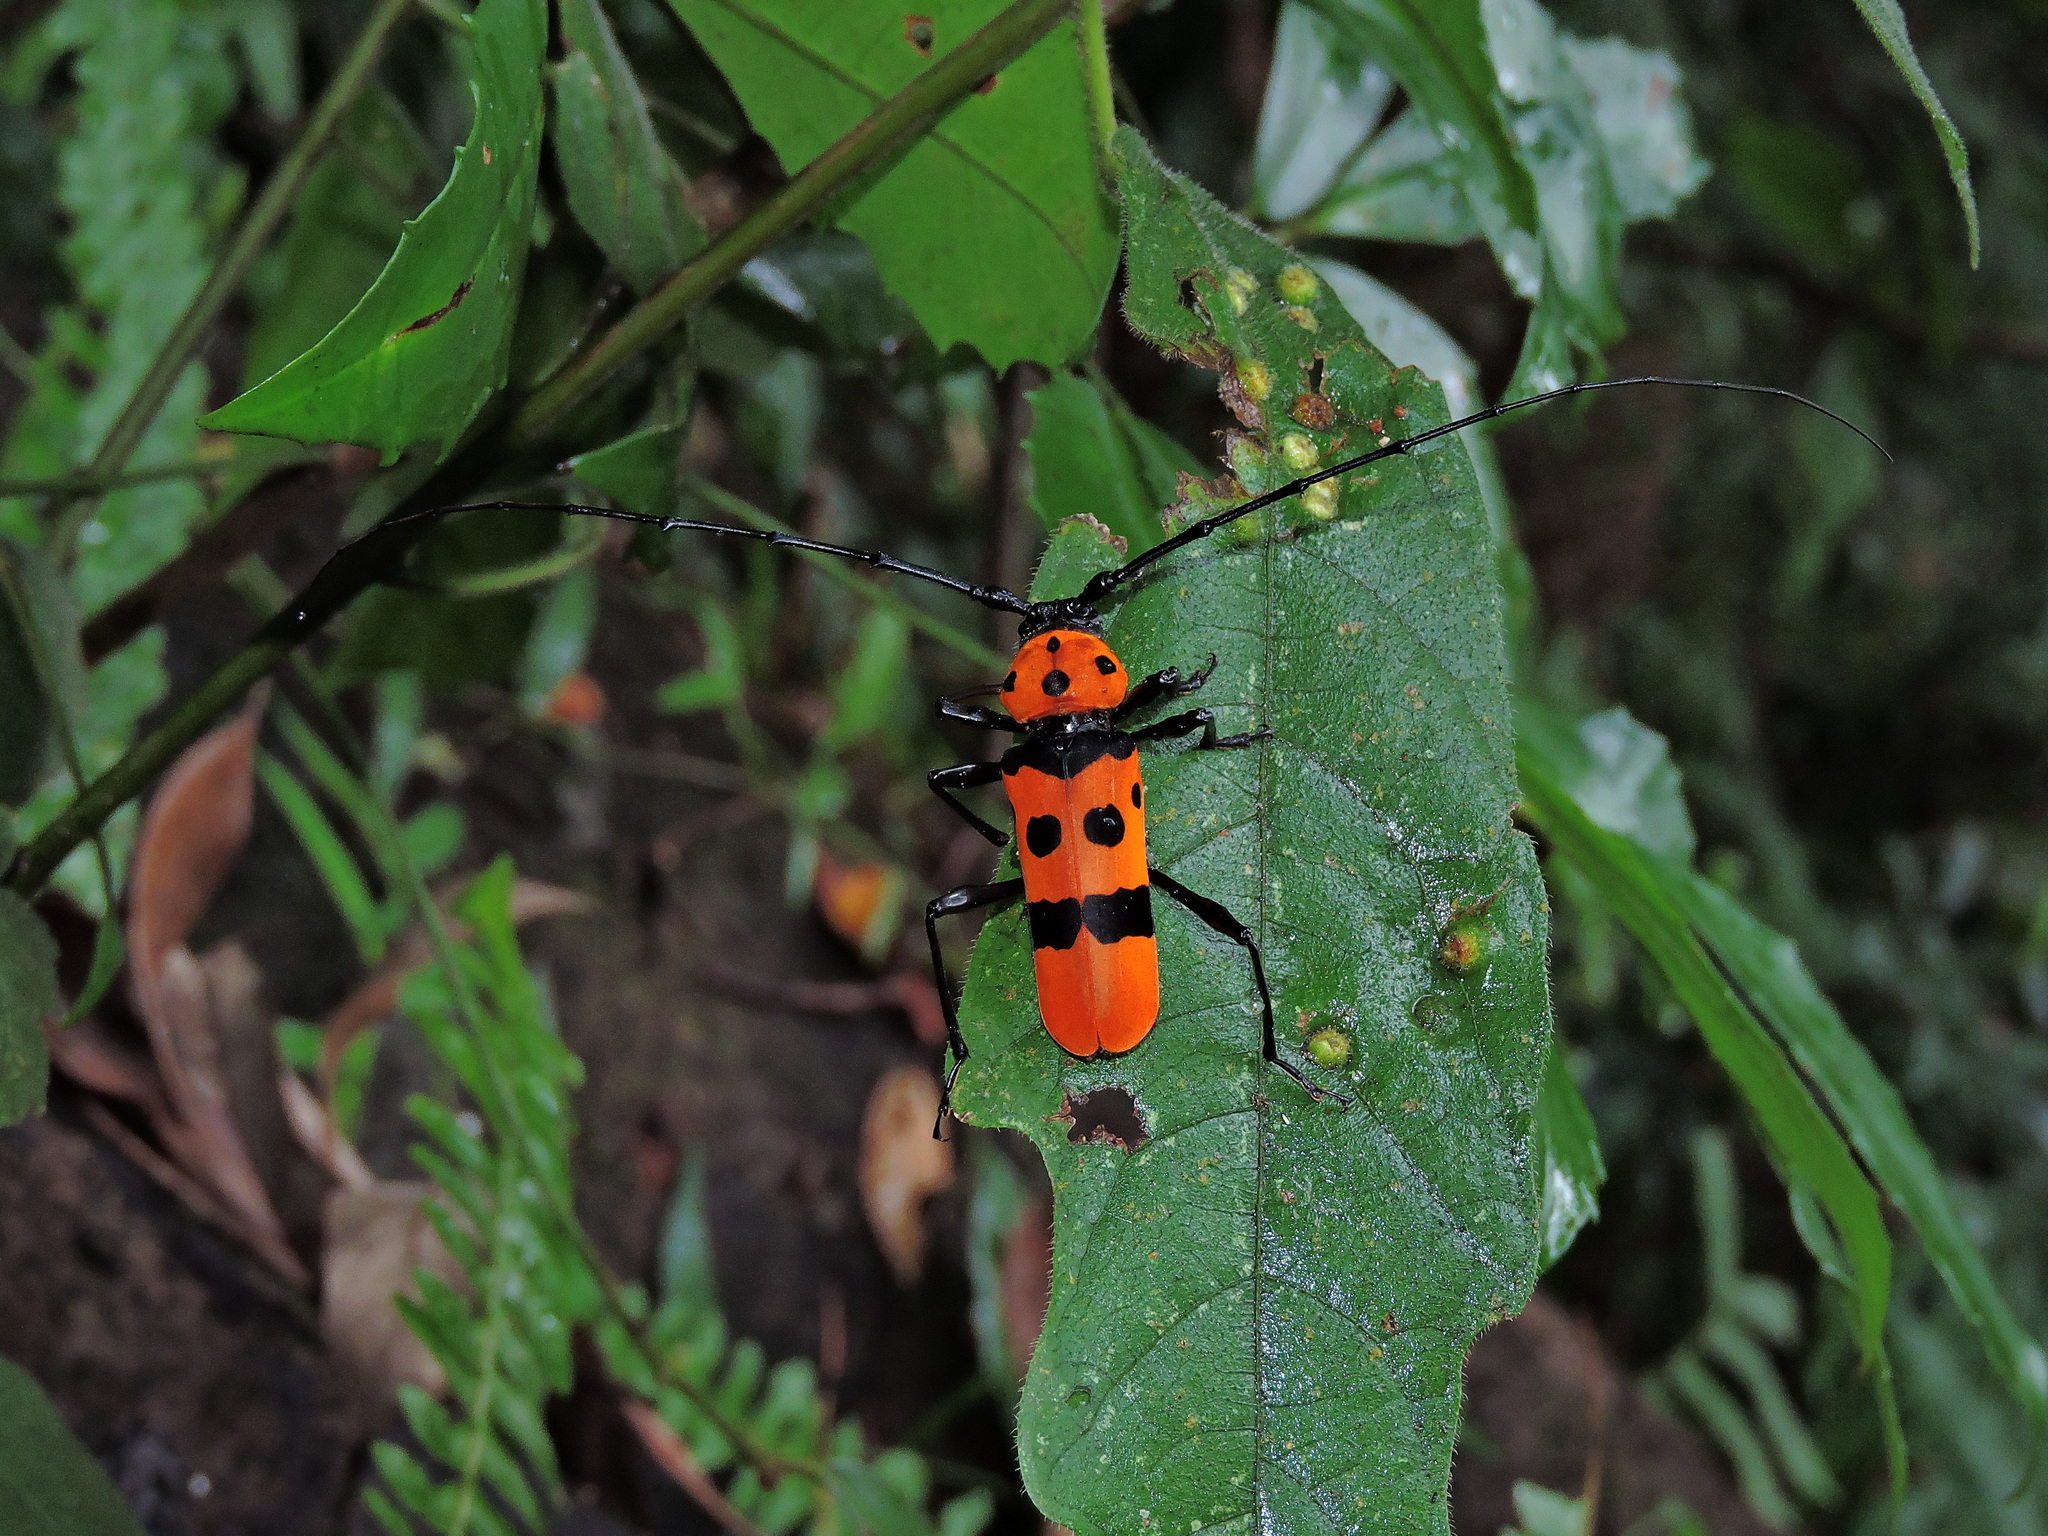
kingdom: Animalia
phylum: Arthropoda
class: Insecta
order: Coleoptera
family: Cerambycidae
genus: Rosalia
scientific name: Rosalia formosa
